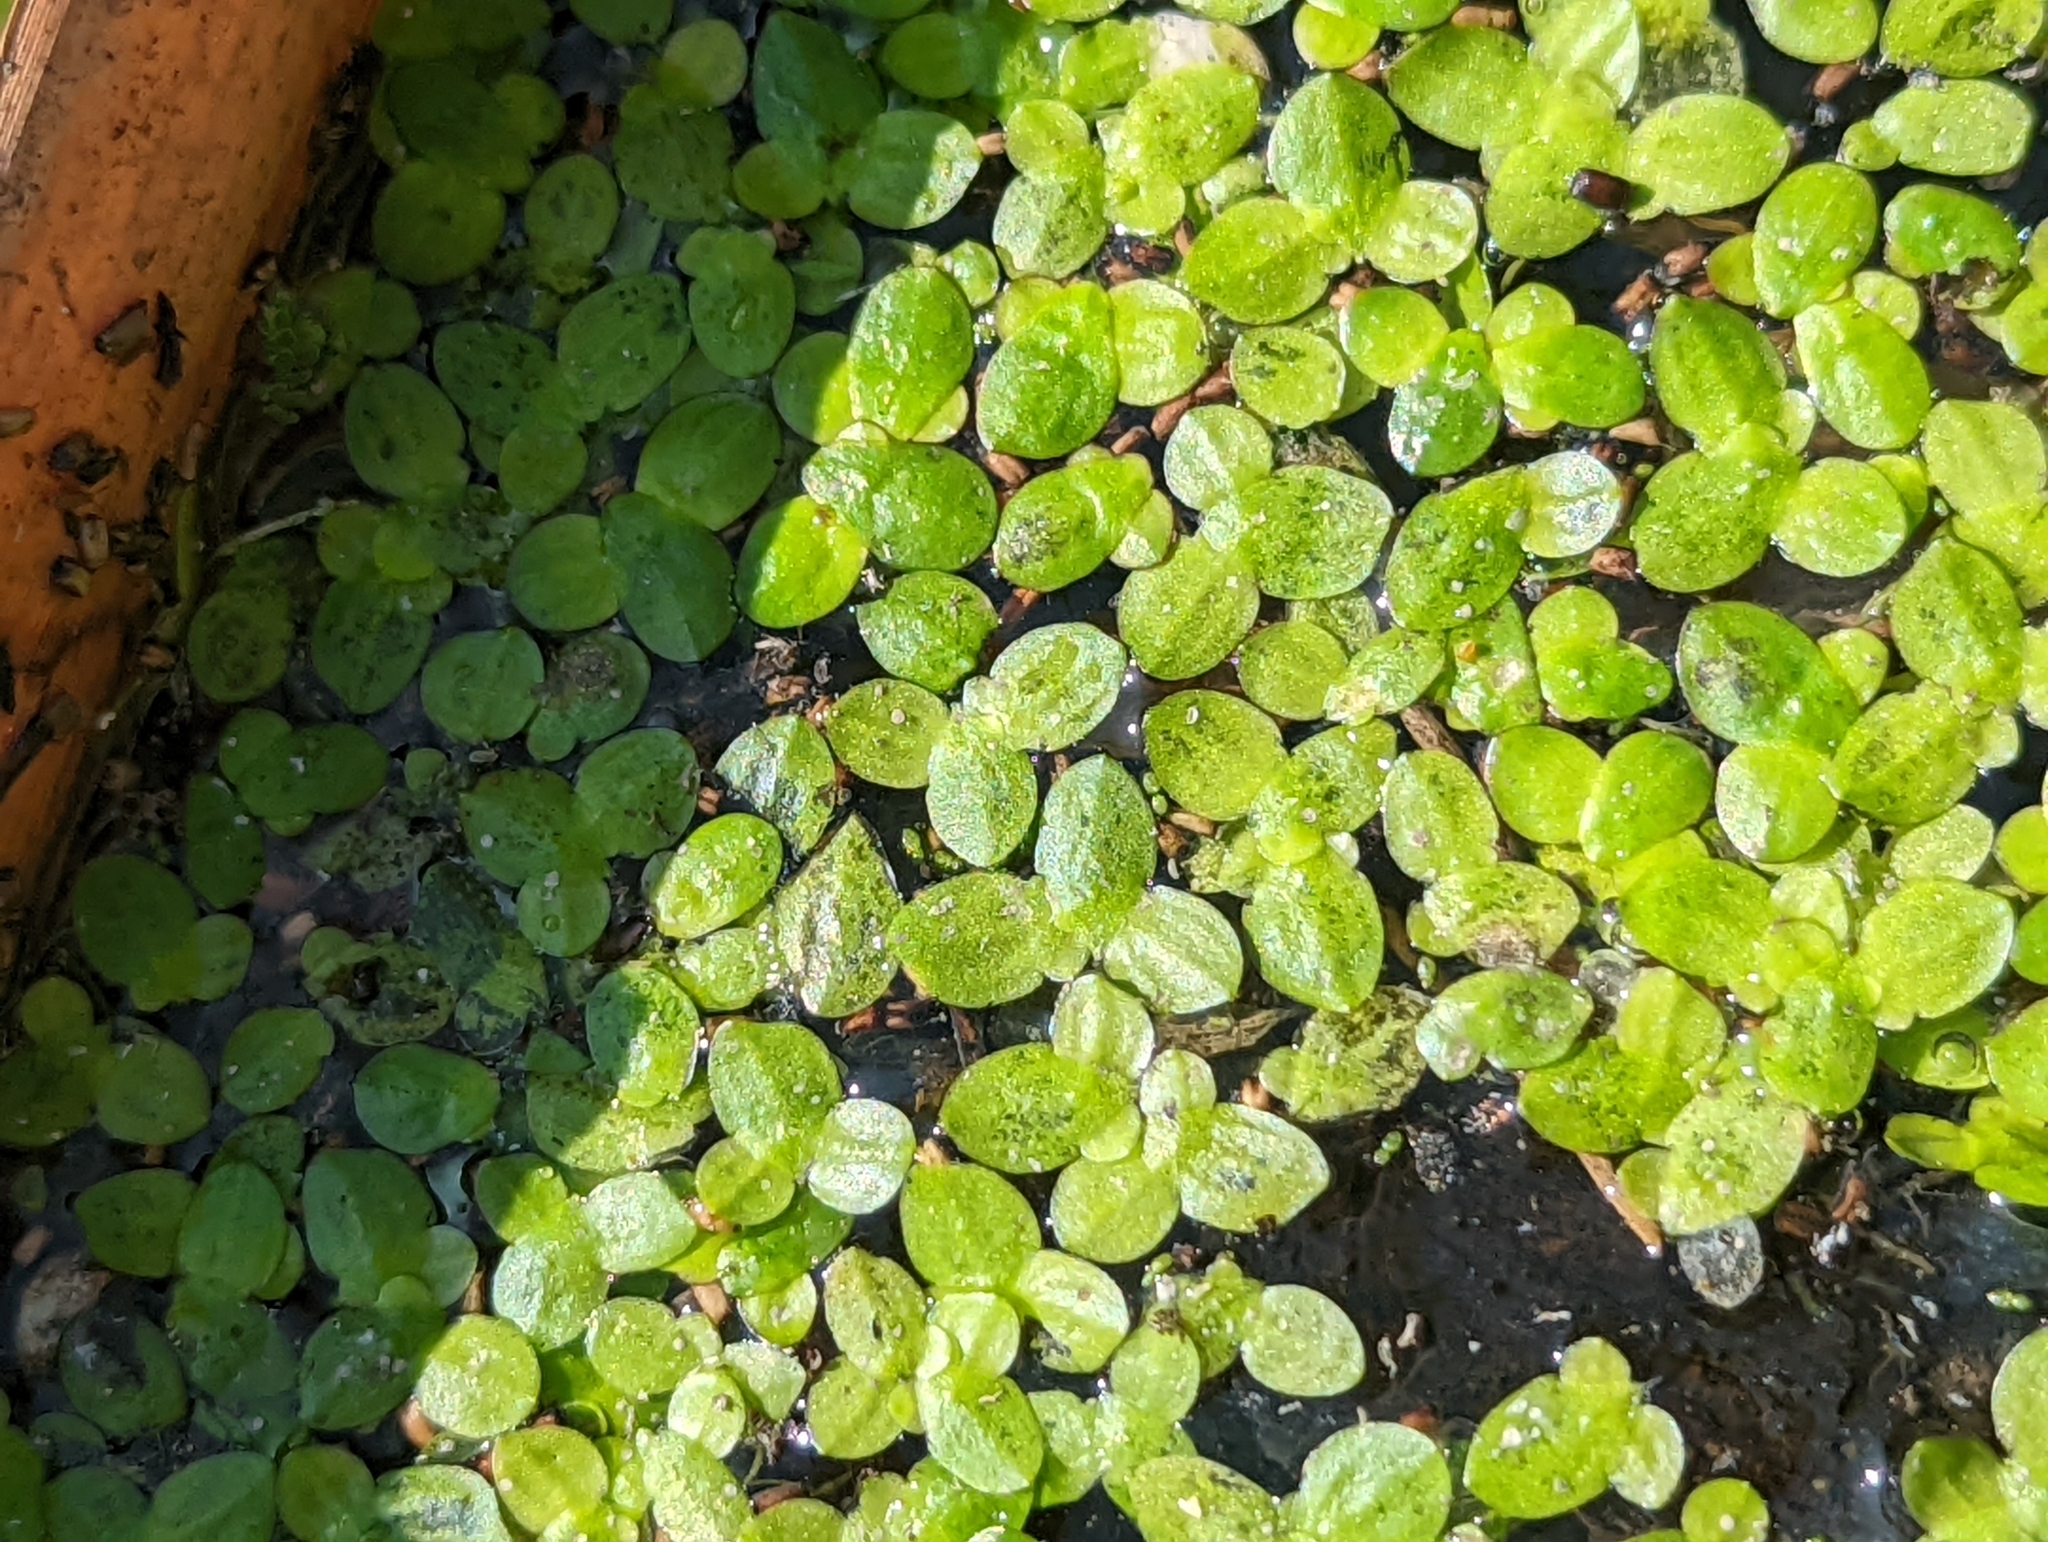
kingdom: Plantae
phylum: Tracheophyta
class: Liliopsida
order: Alismatales
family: Araceae
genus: Lemna
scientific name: Lemna aequinoctialis
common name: Duckweed
